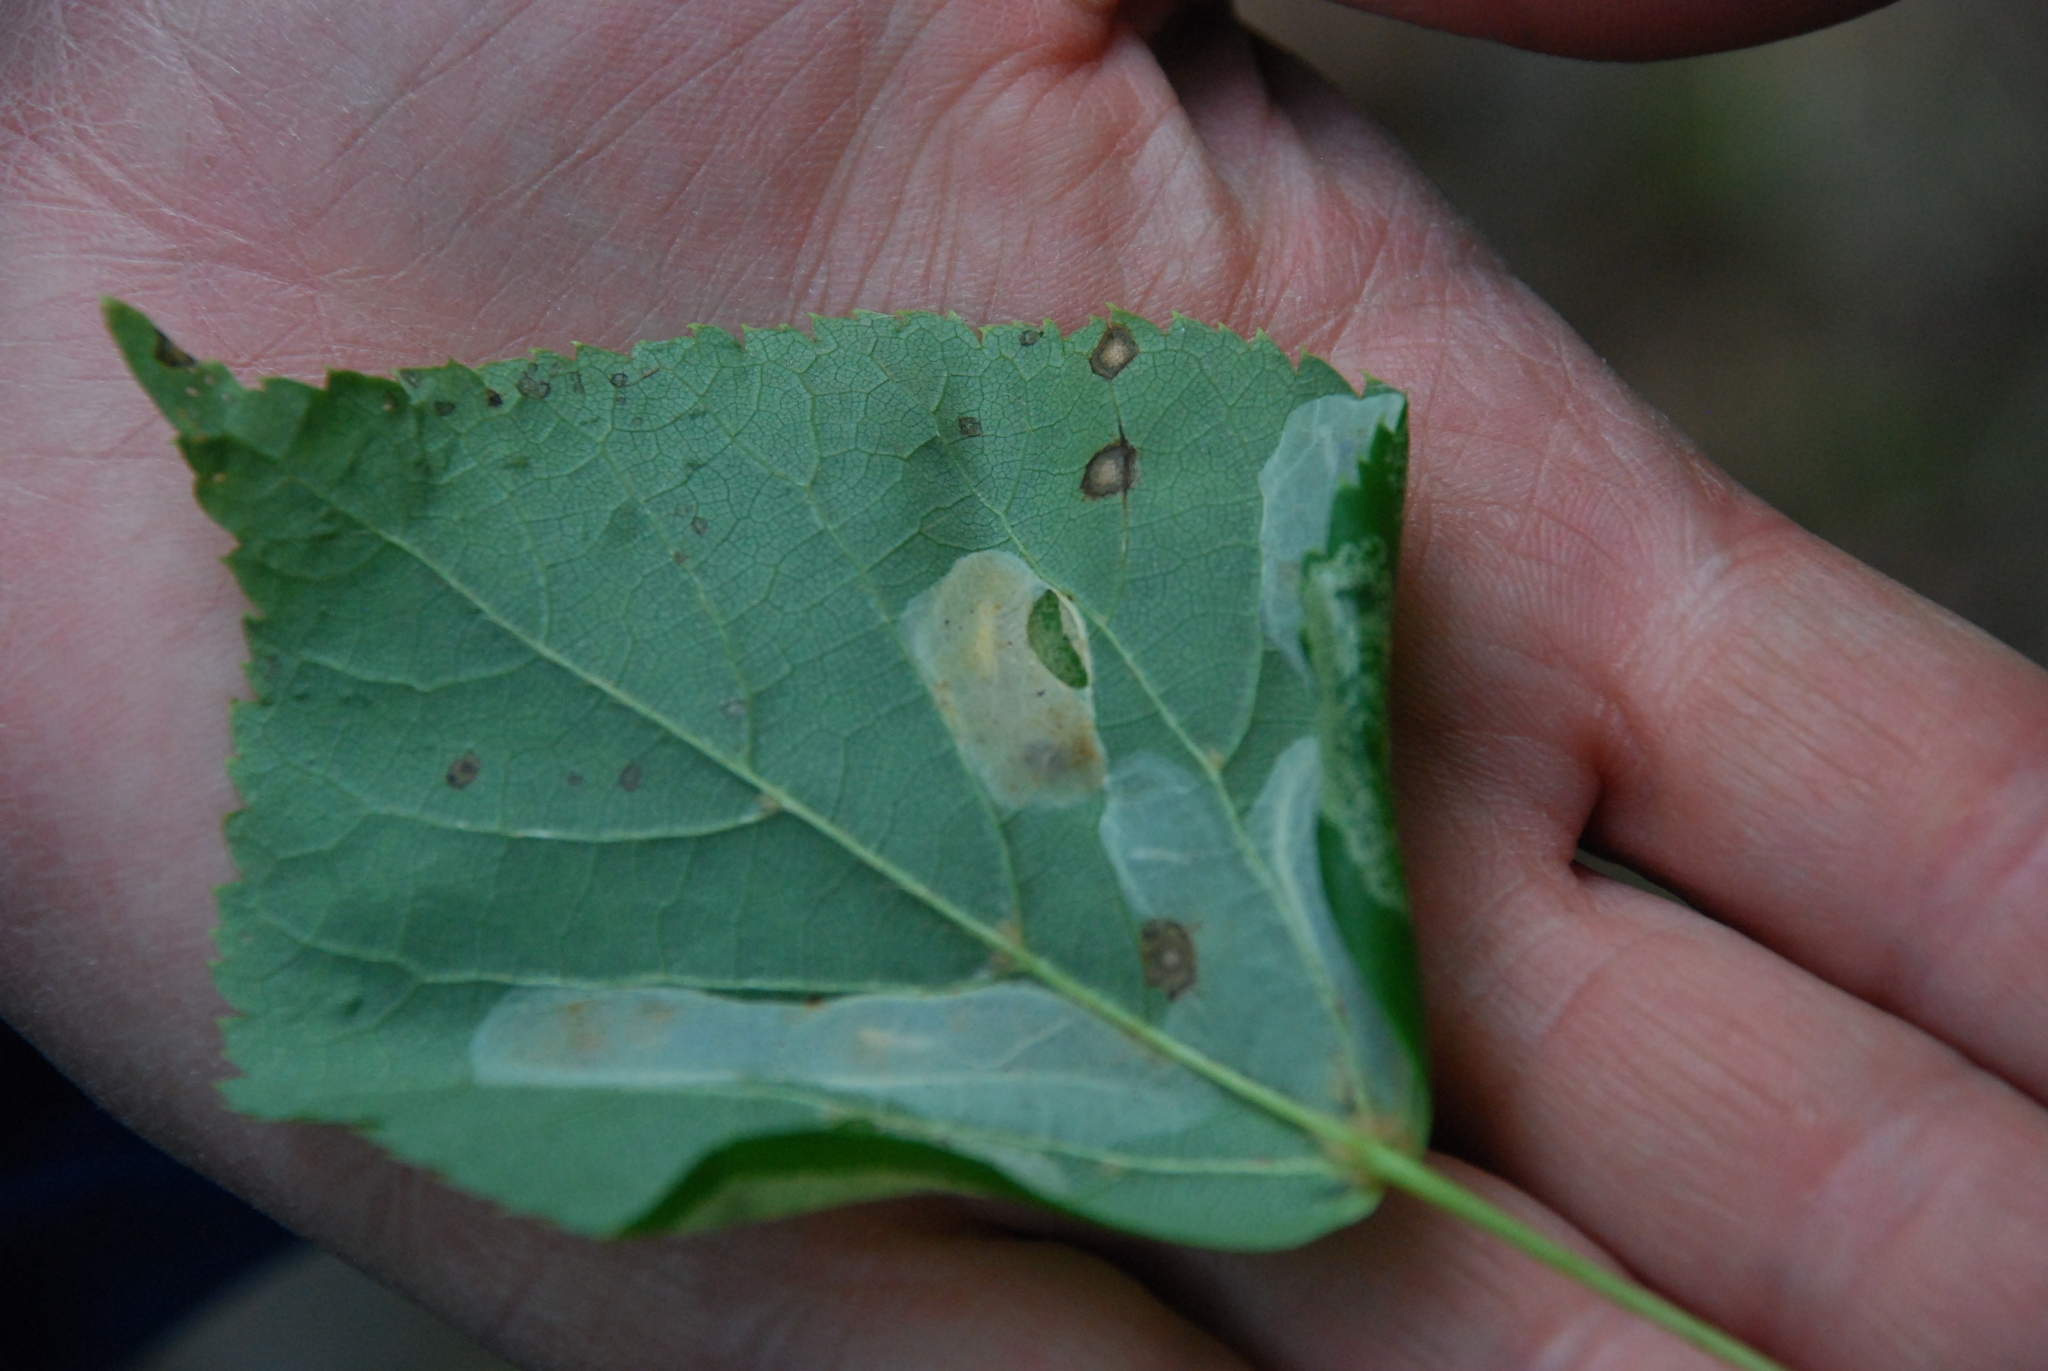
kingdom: Animalia
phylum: Arthropoda
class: Insecta
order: Lepidoptera
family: Gracillariidae
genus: Phyllonorycter
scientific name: Phyllonorycter issikii
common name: Linden midget
